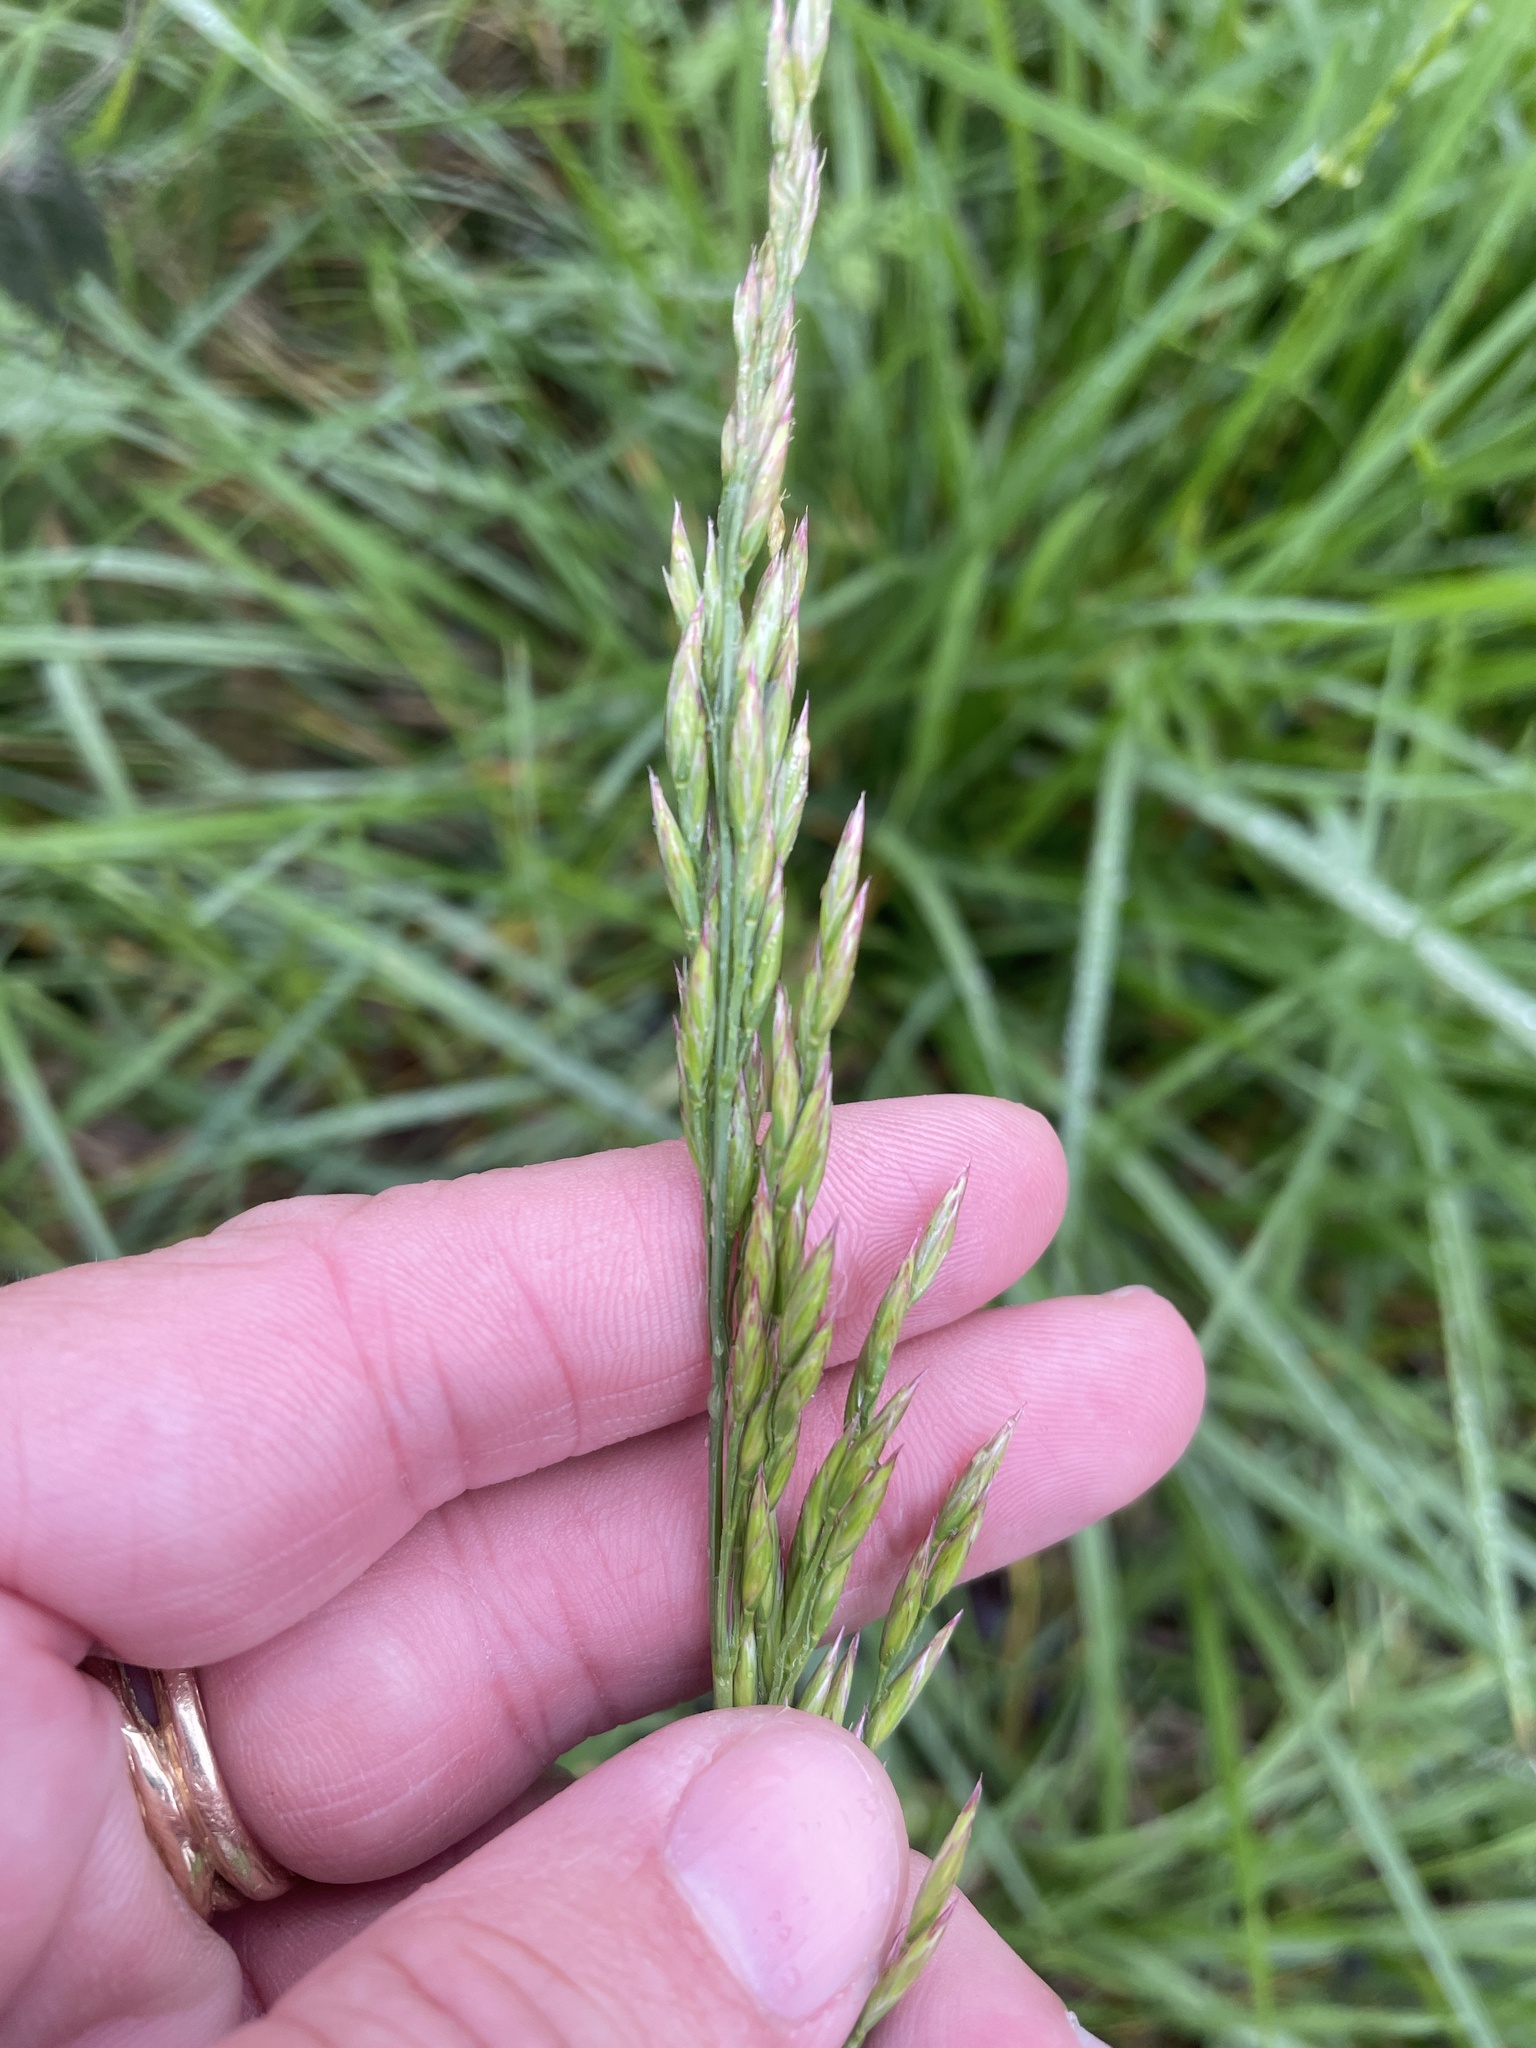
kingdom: Plantae
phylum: Tracheophyta
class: Liliopsida
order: Poales
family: Poaceae
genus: Lolium
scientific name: Lolium arundinaceum
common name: Reed fescue
